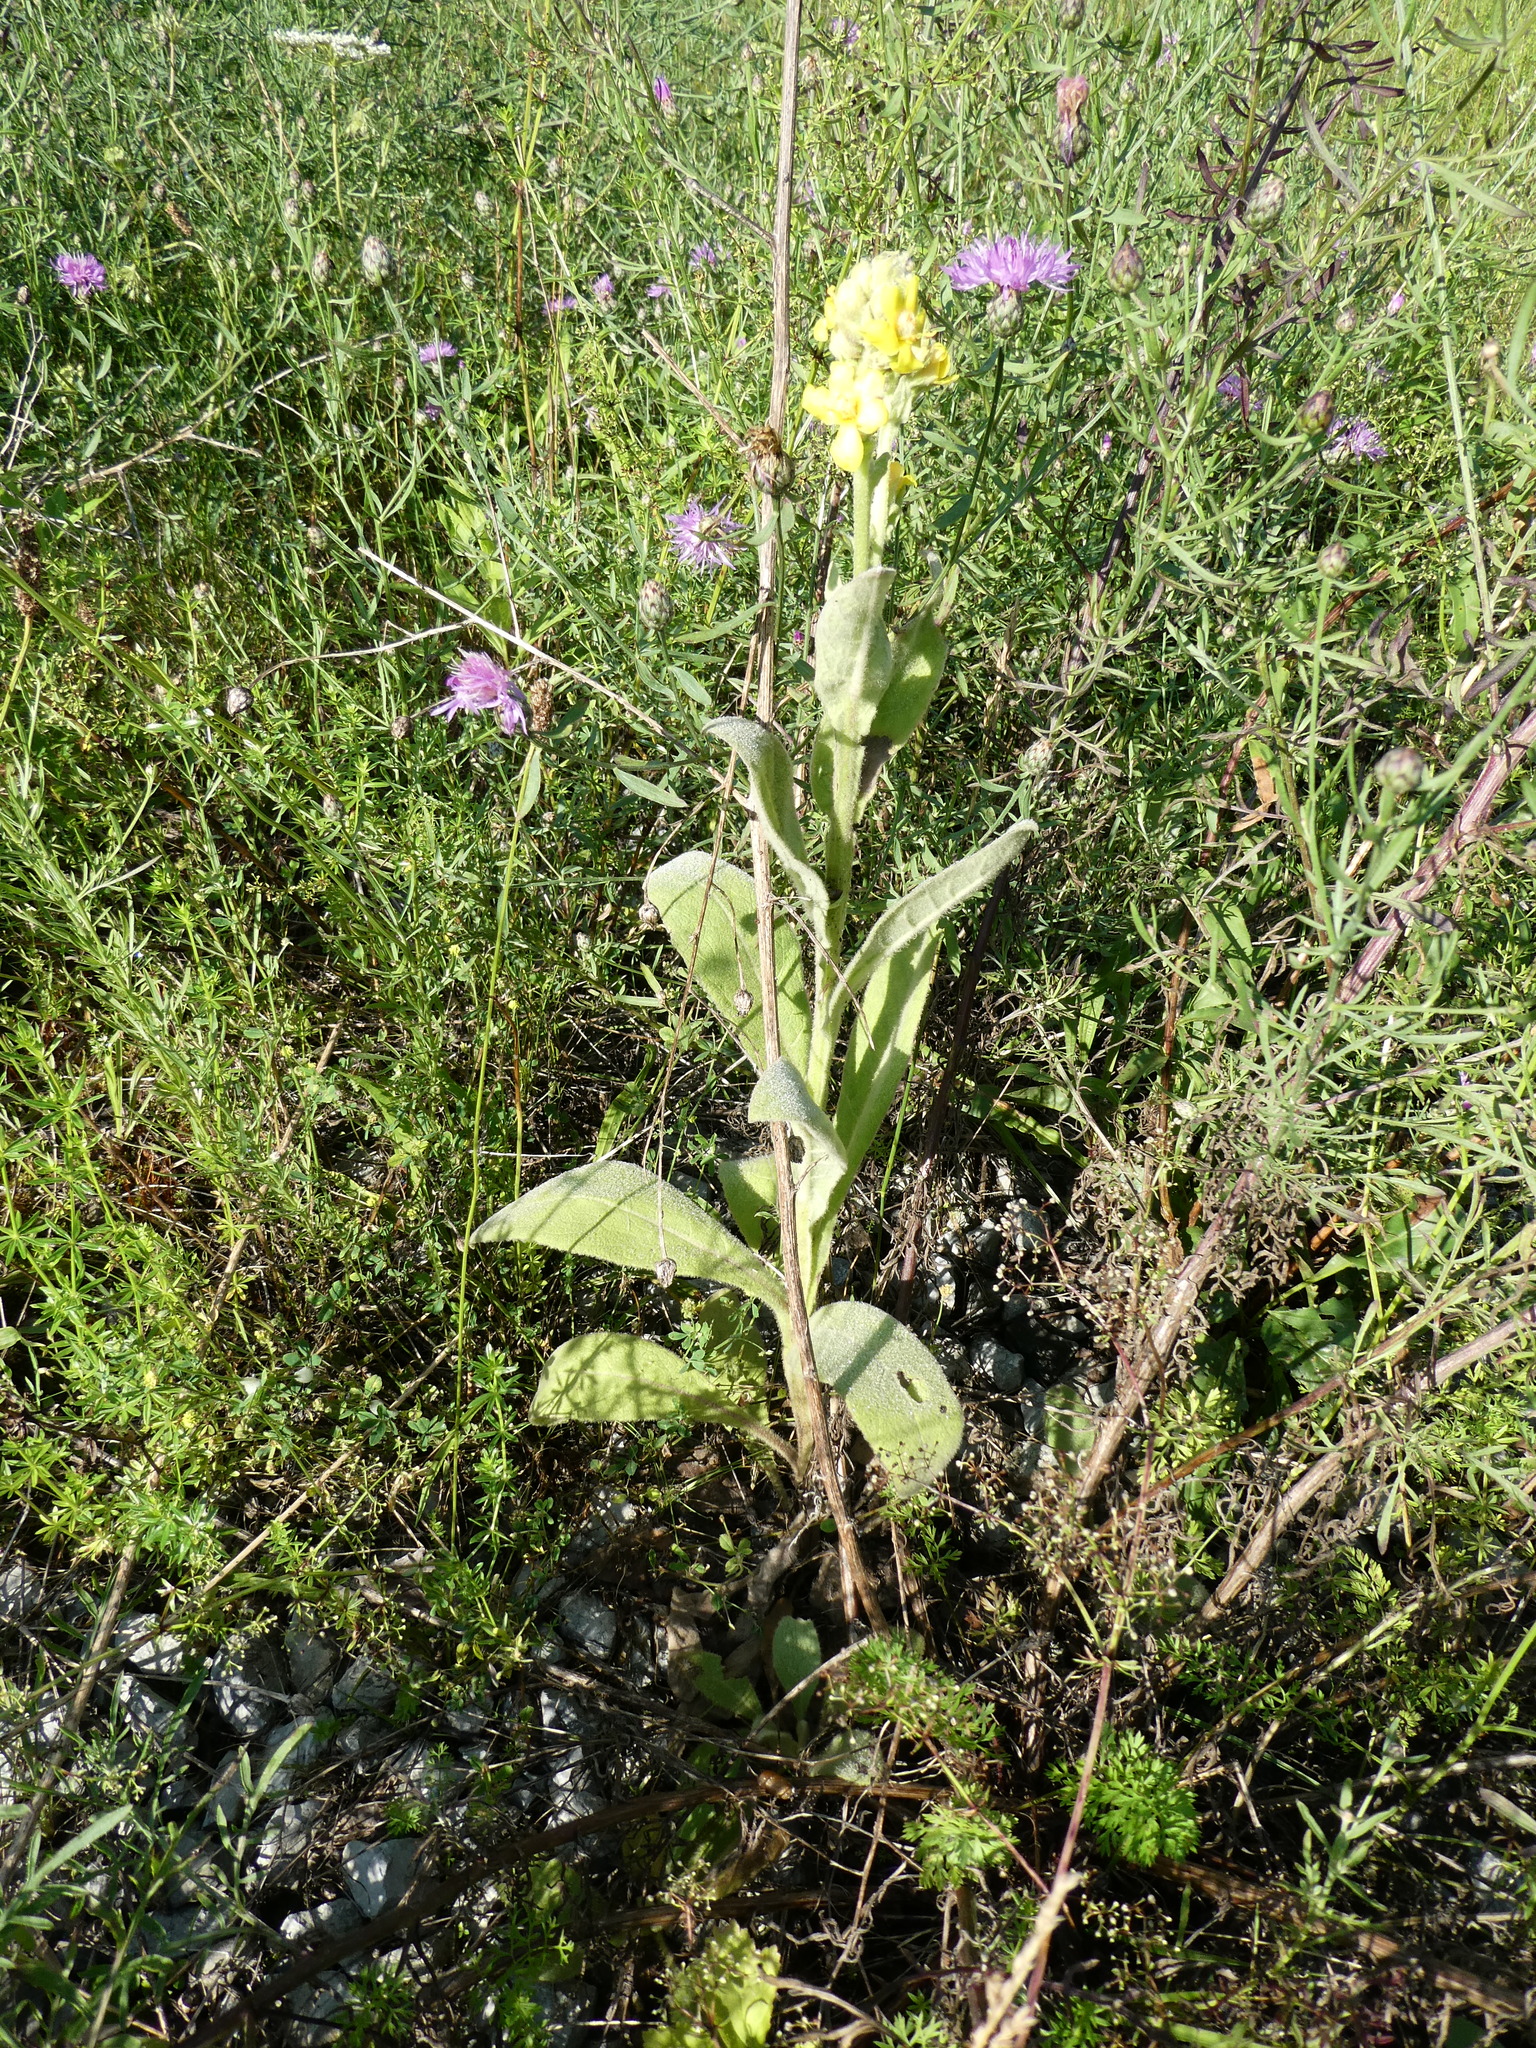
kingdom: Plantae
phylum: Tracheophyta
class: Magnoliopsida
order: Lamiales
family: Scrophulariaceae
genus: Verbascum
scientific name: Verbascum thapsus
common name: Common mullein
